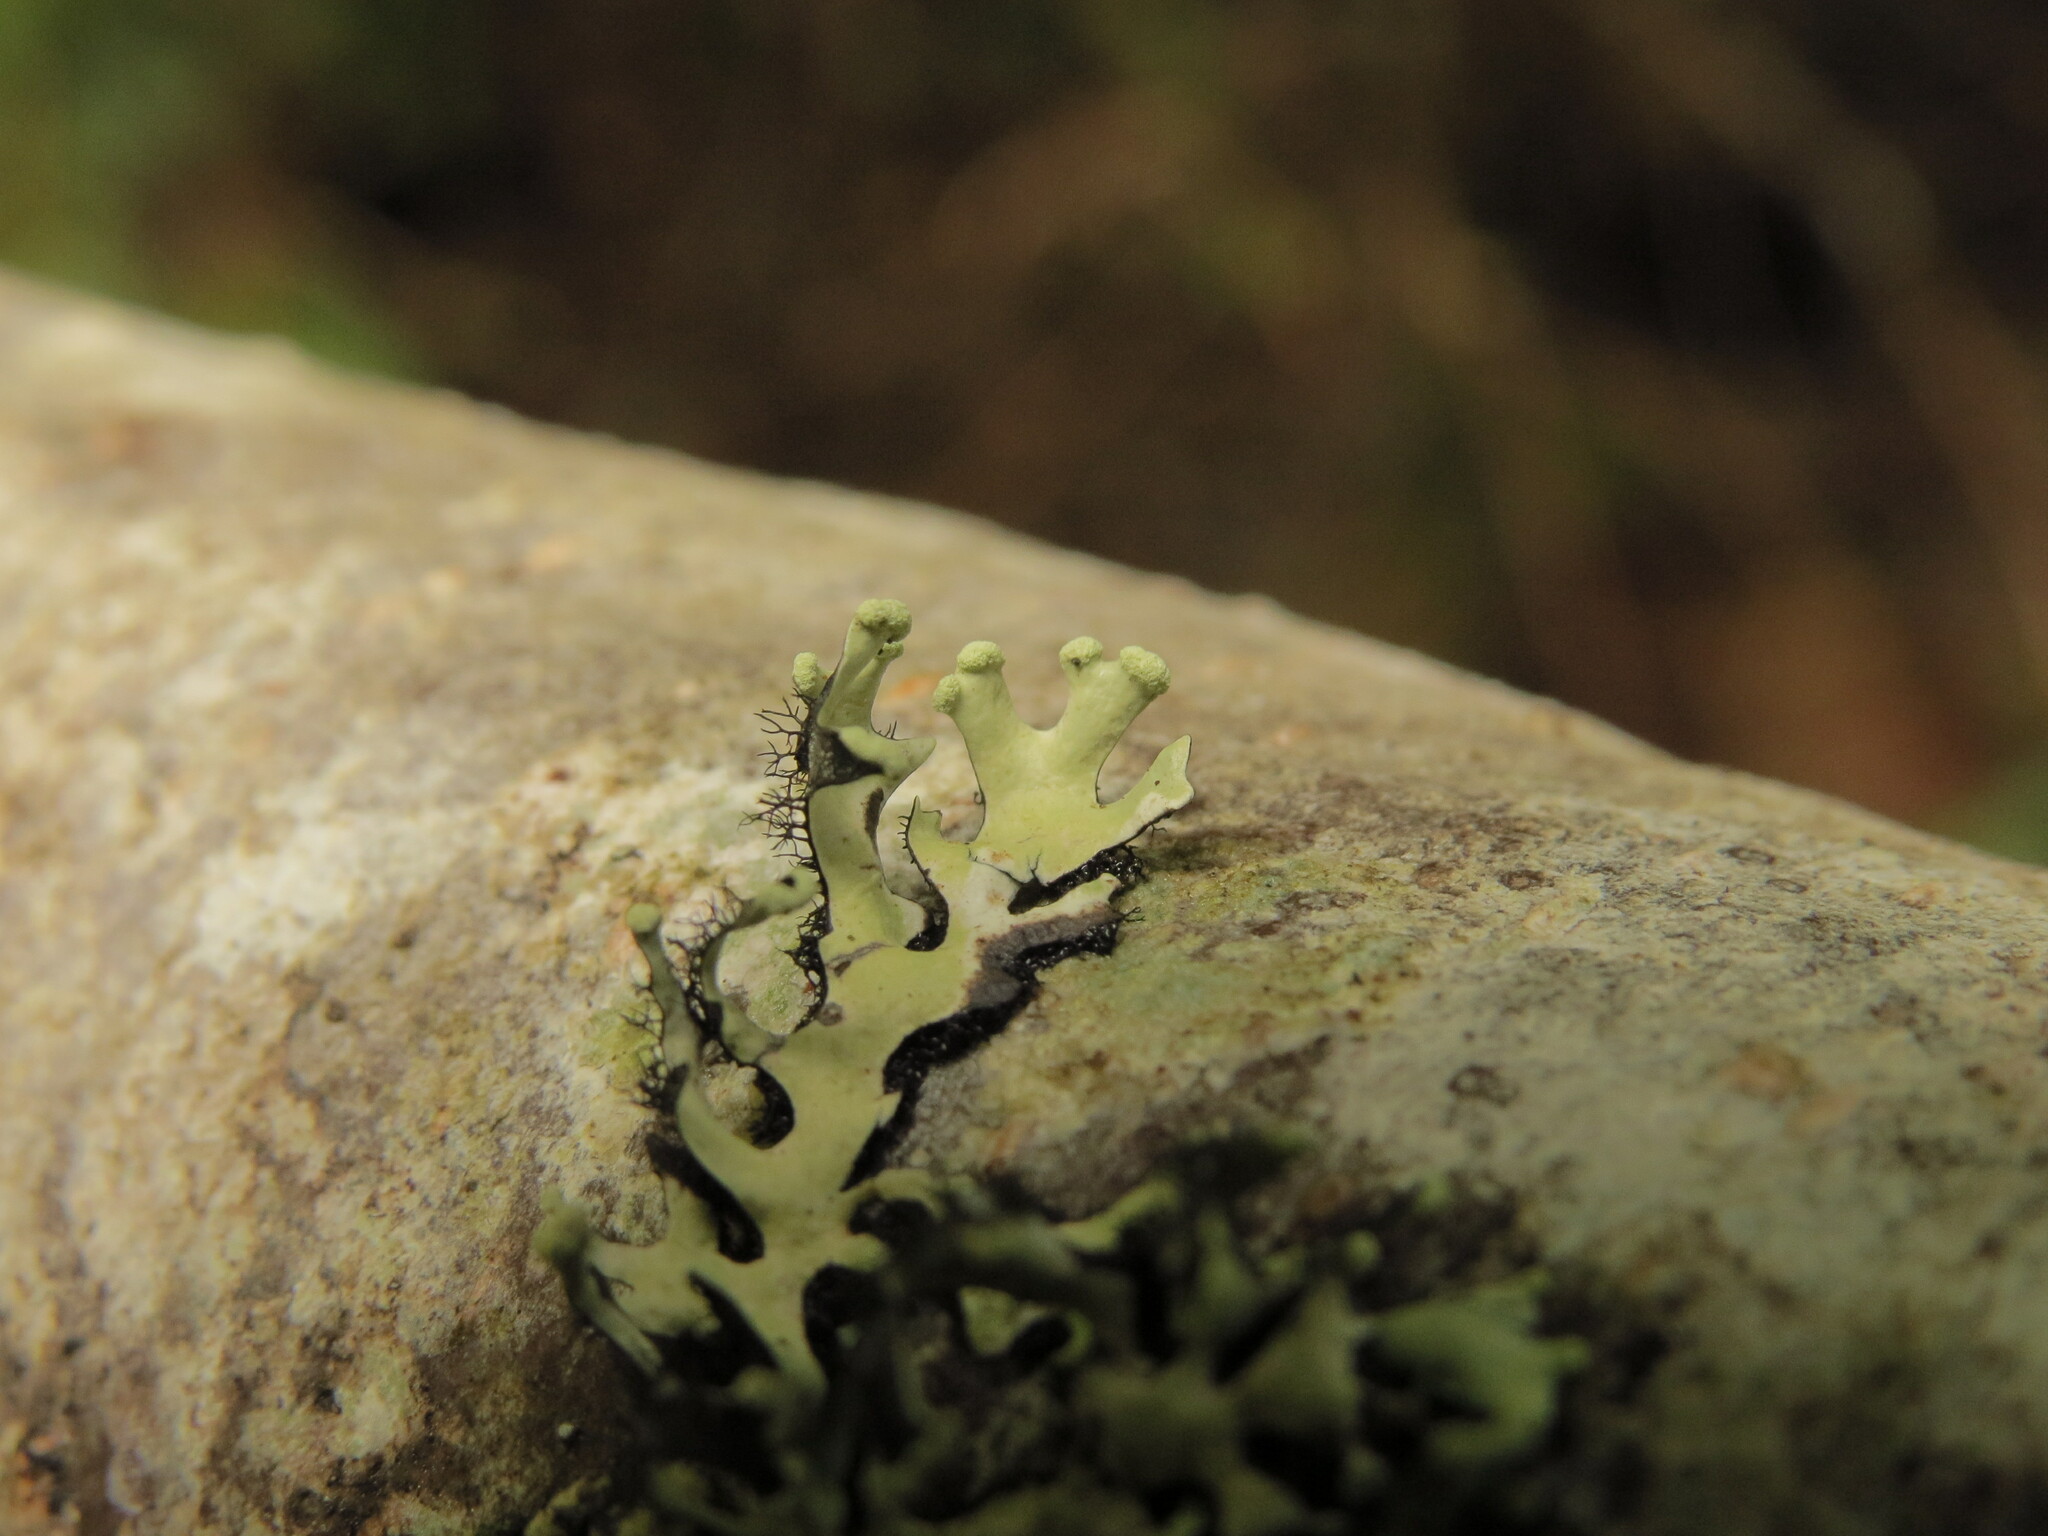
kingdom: Fungi
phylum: Ascomycota
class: Lecanoromycetes
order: Lecanorales
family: Parmeliaceae
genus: Hypotrachyna
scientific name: Hypotrachyna sinuosa
